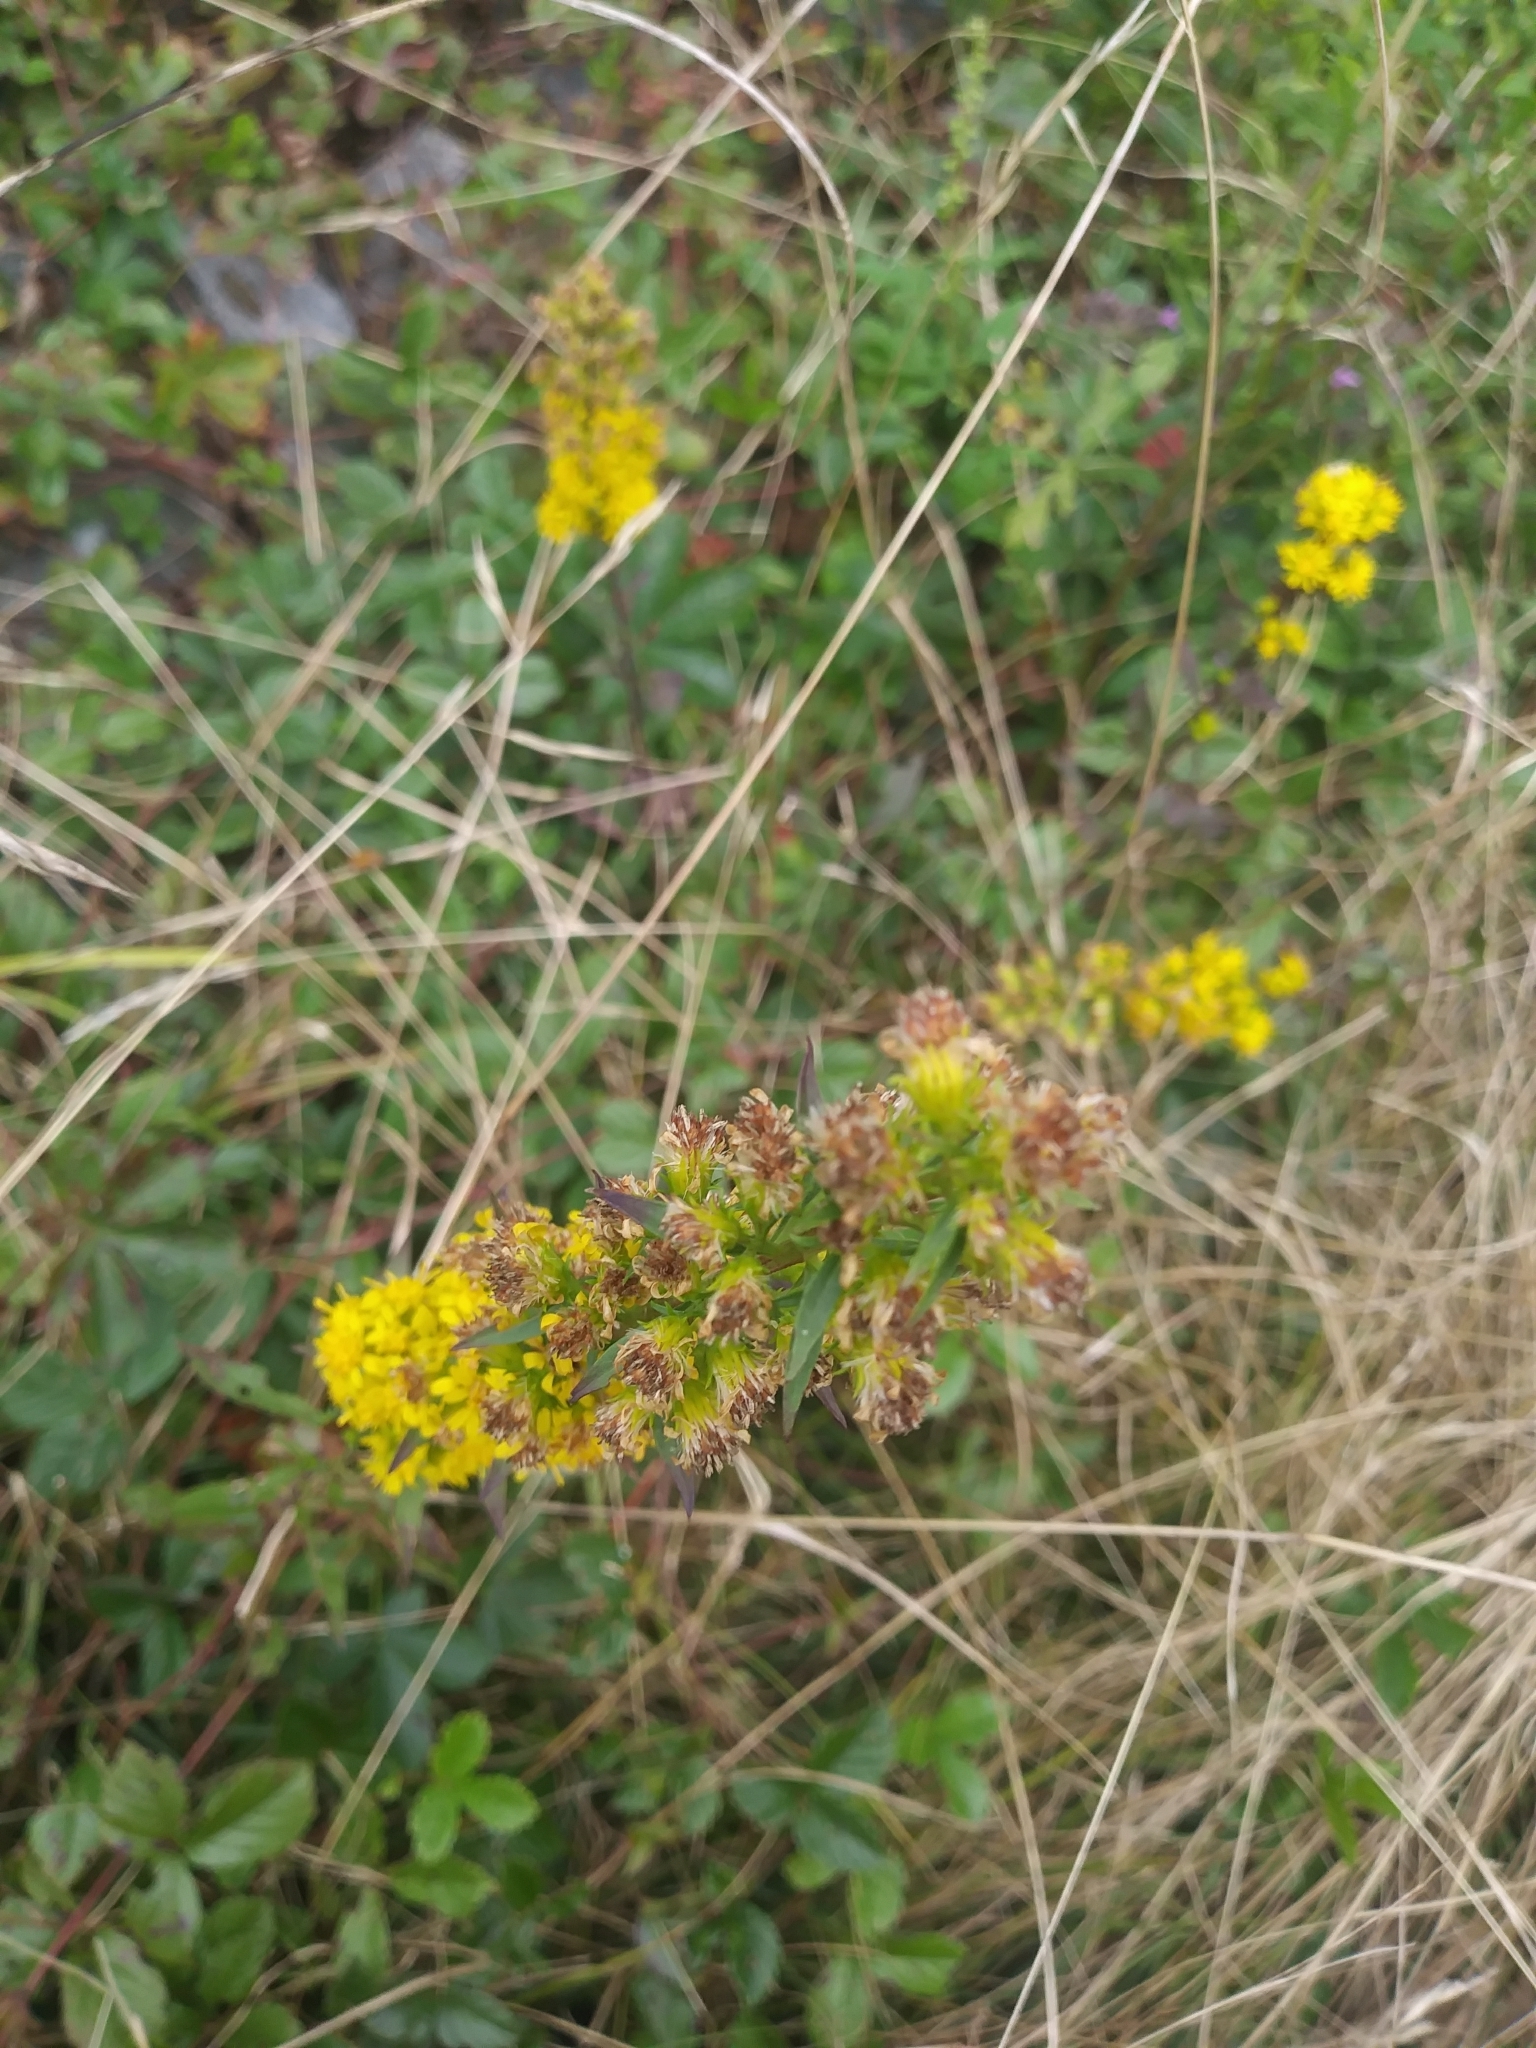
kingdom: Plantae
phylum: Tracheophyta
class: Magnoliopsida
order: Asterales
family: Asteraceae
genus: Solidago
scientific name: Solidago puberula
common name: Downy goldenrod
